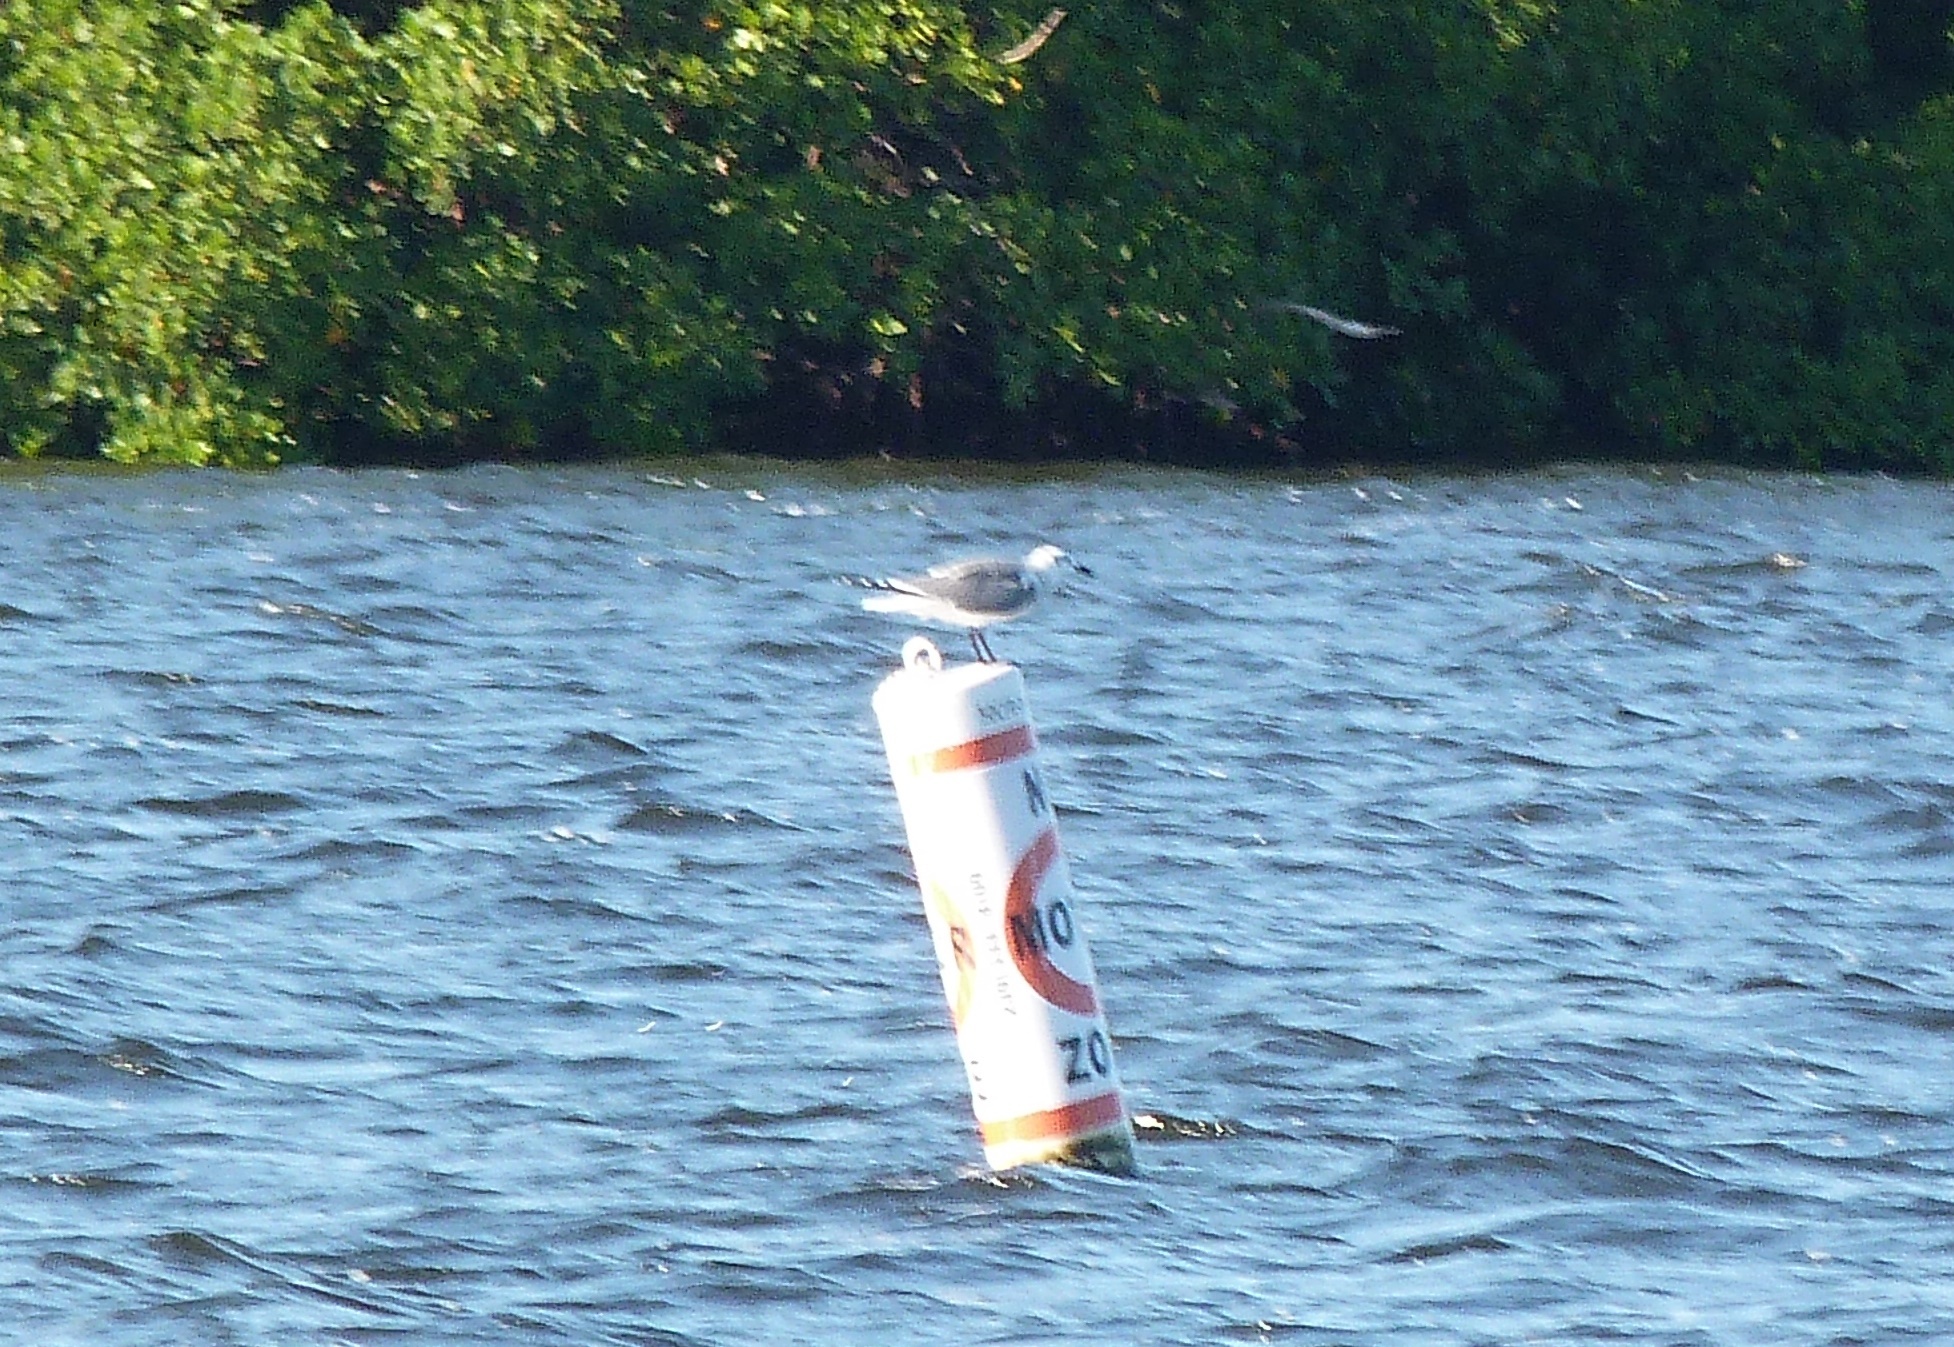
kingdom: Animalia
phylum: Chordata
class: Aves
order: Charadriiformes
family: Laridae
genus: Leucophaeus
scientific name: Leucophaeus atricilla
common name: Laughing gull
